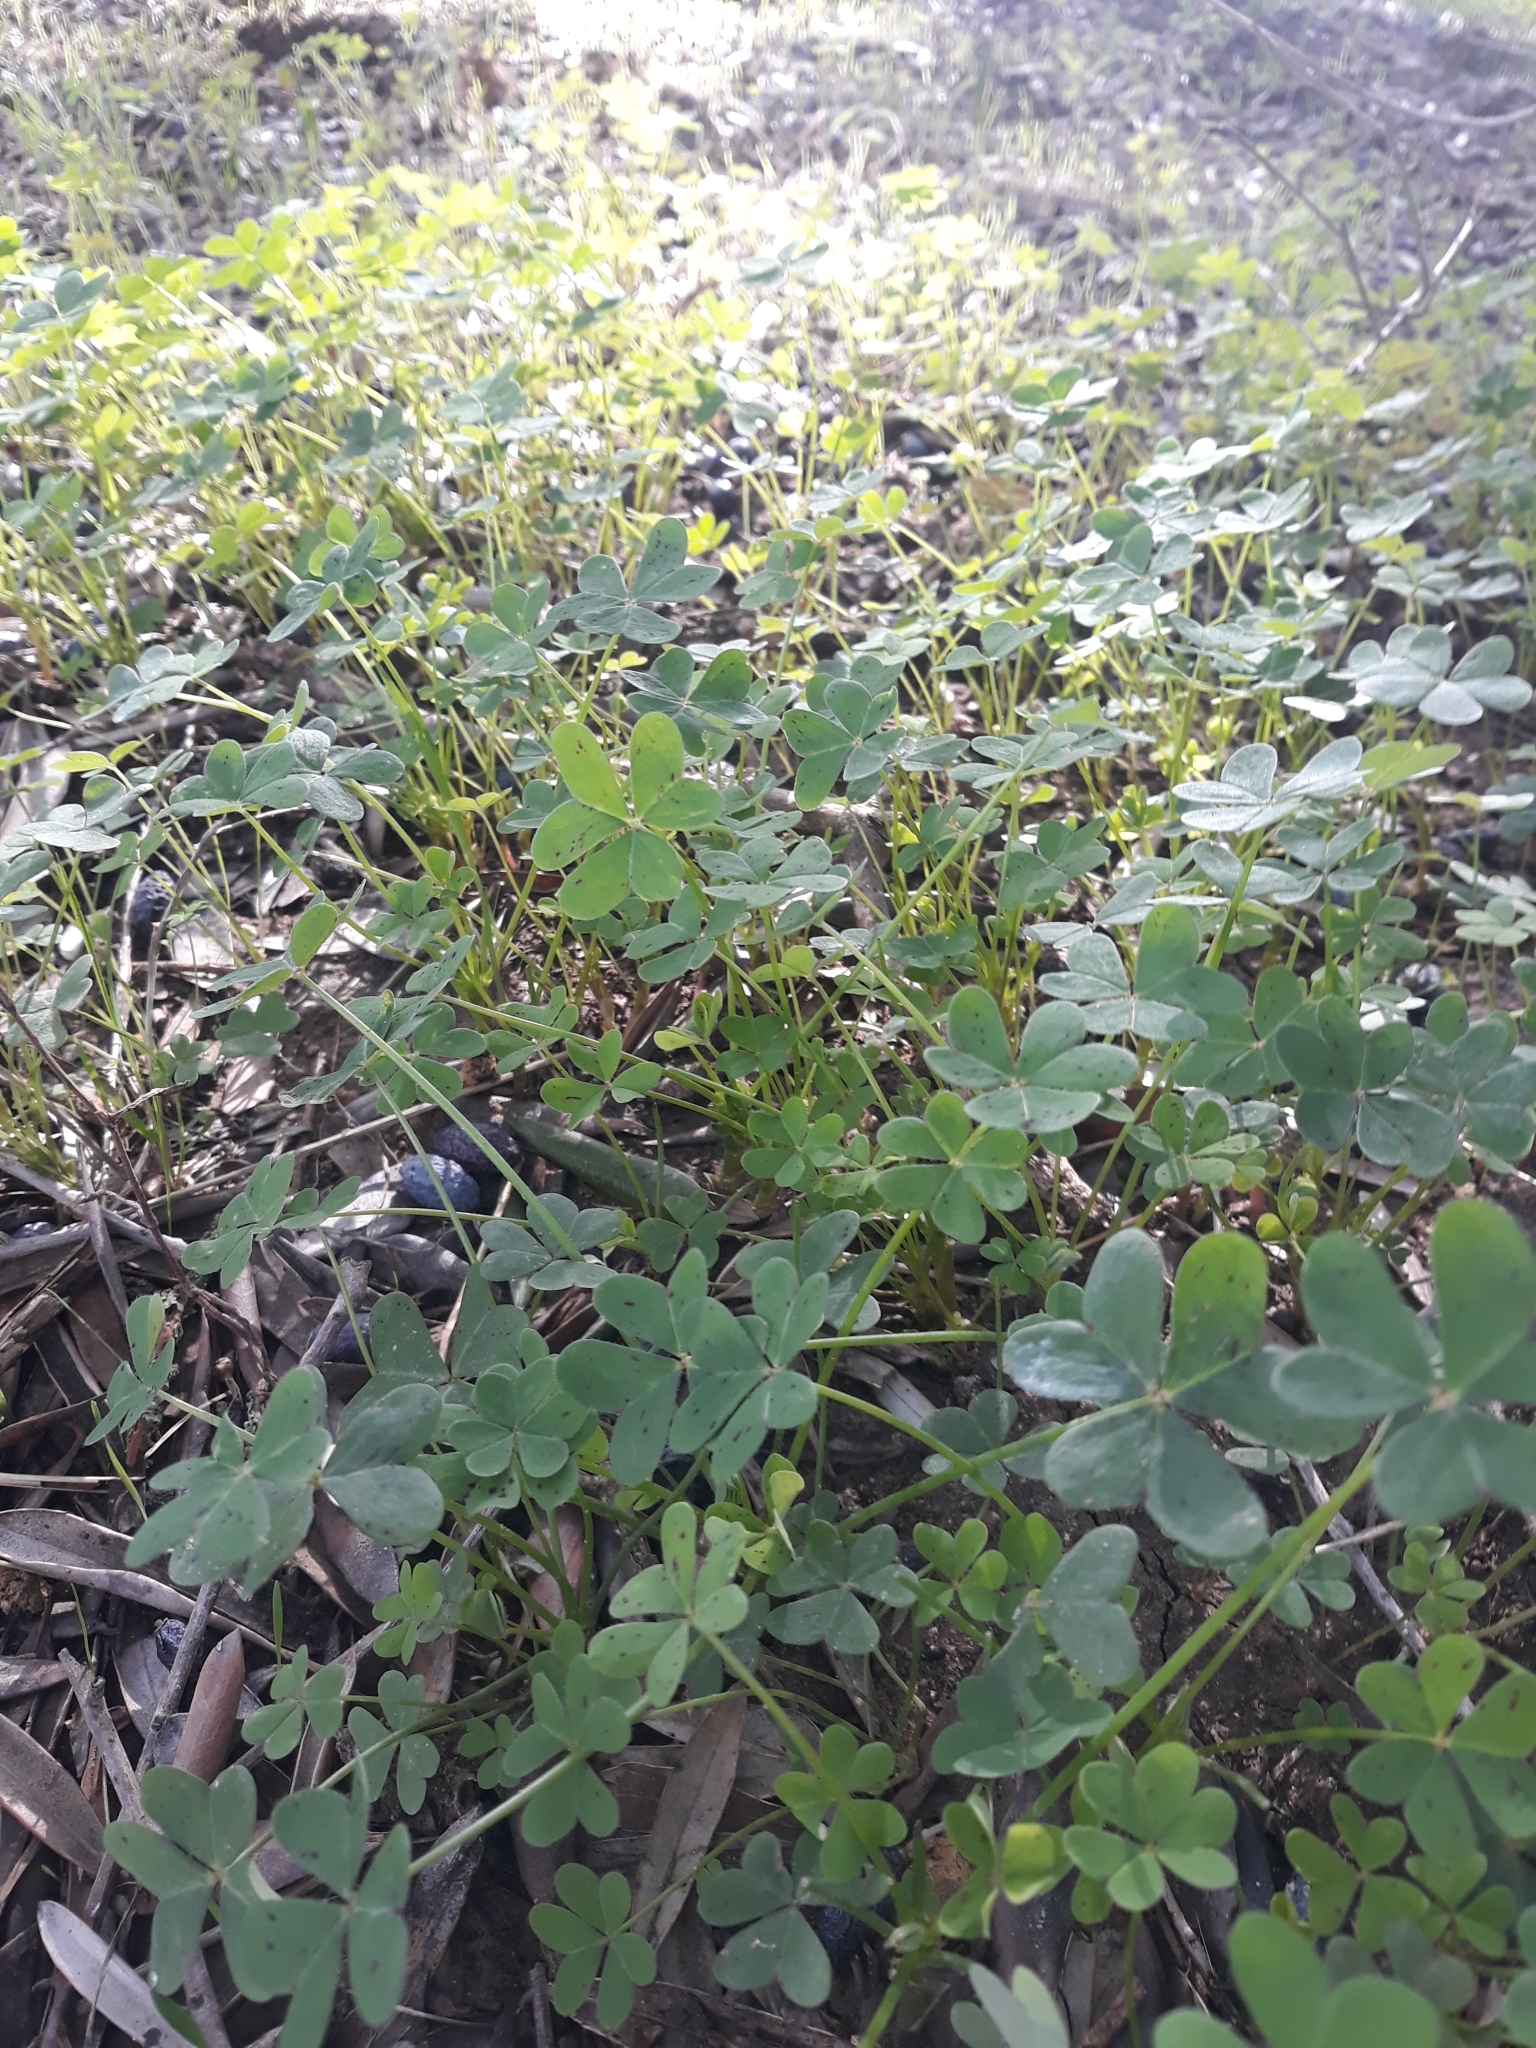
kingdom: Plantae
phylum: Tracheophyta
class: Magnoliopsida
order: Oxalidales
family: Oxalidaceae
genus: Oxalis
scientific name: Oxalis pes-caprae
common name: Bermuda-buttercup
